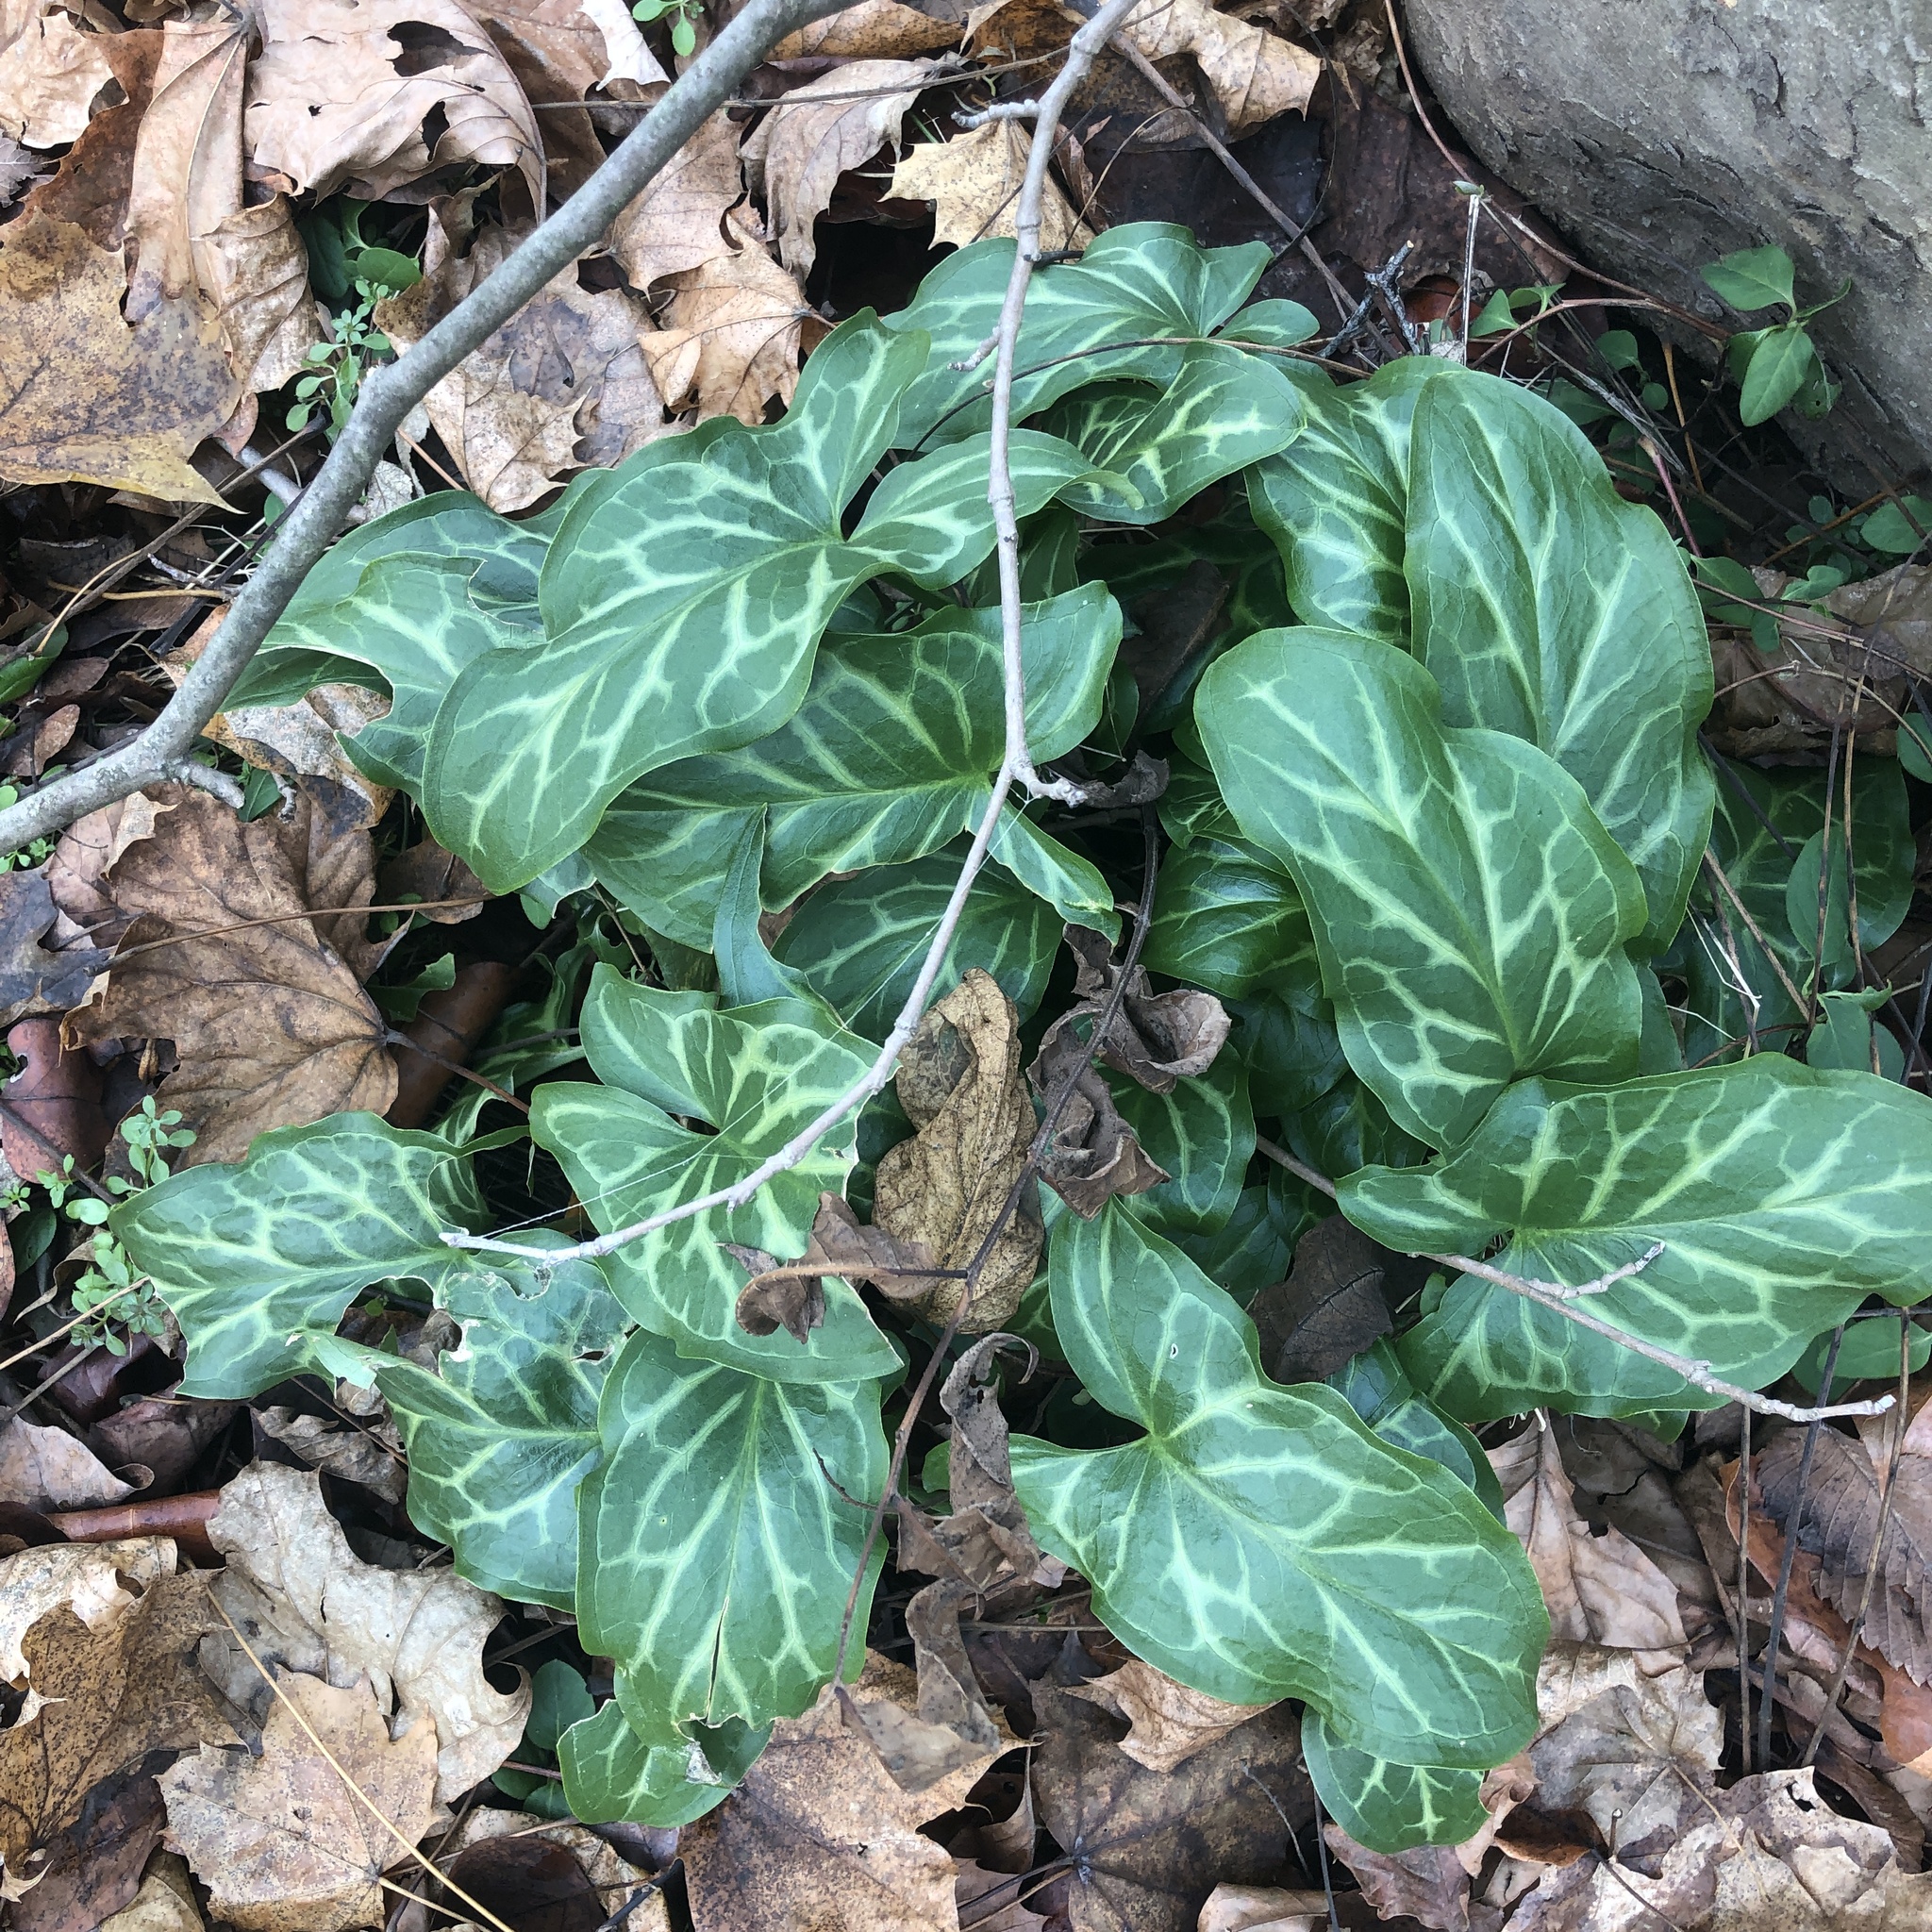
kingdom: Plantae
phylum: Tracheophyta
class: Liliopsida
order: Alismatales
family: Araceae
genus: Arum
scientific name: Arum italicum
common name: Italian lords-and-ladies
